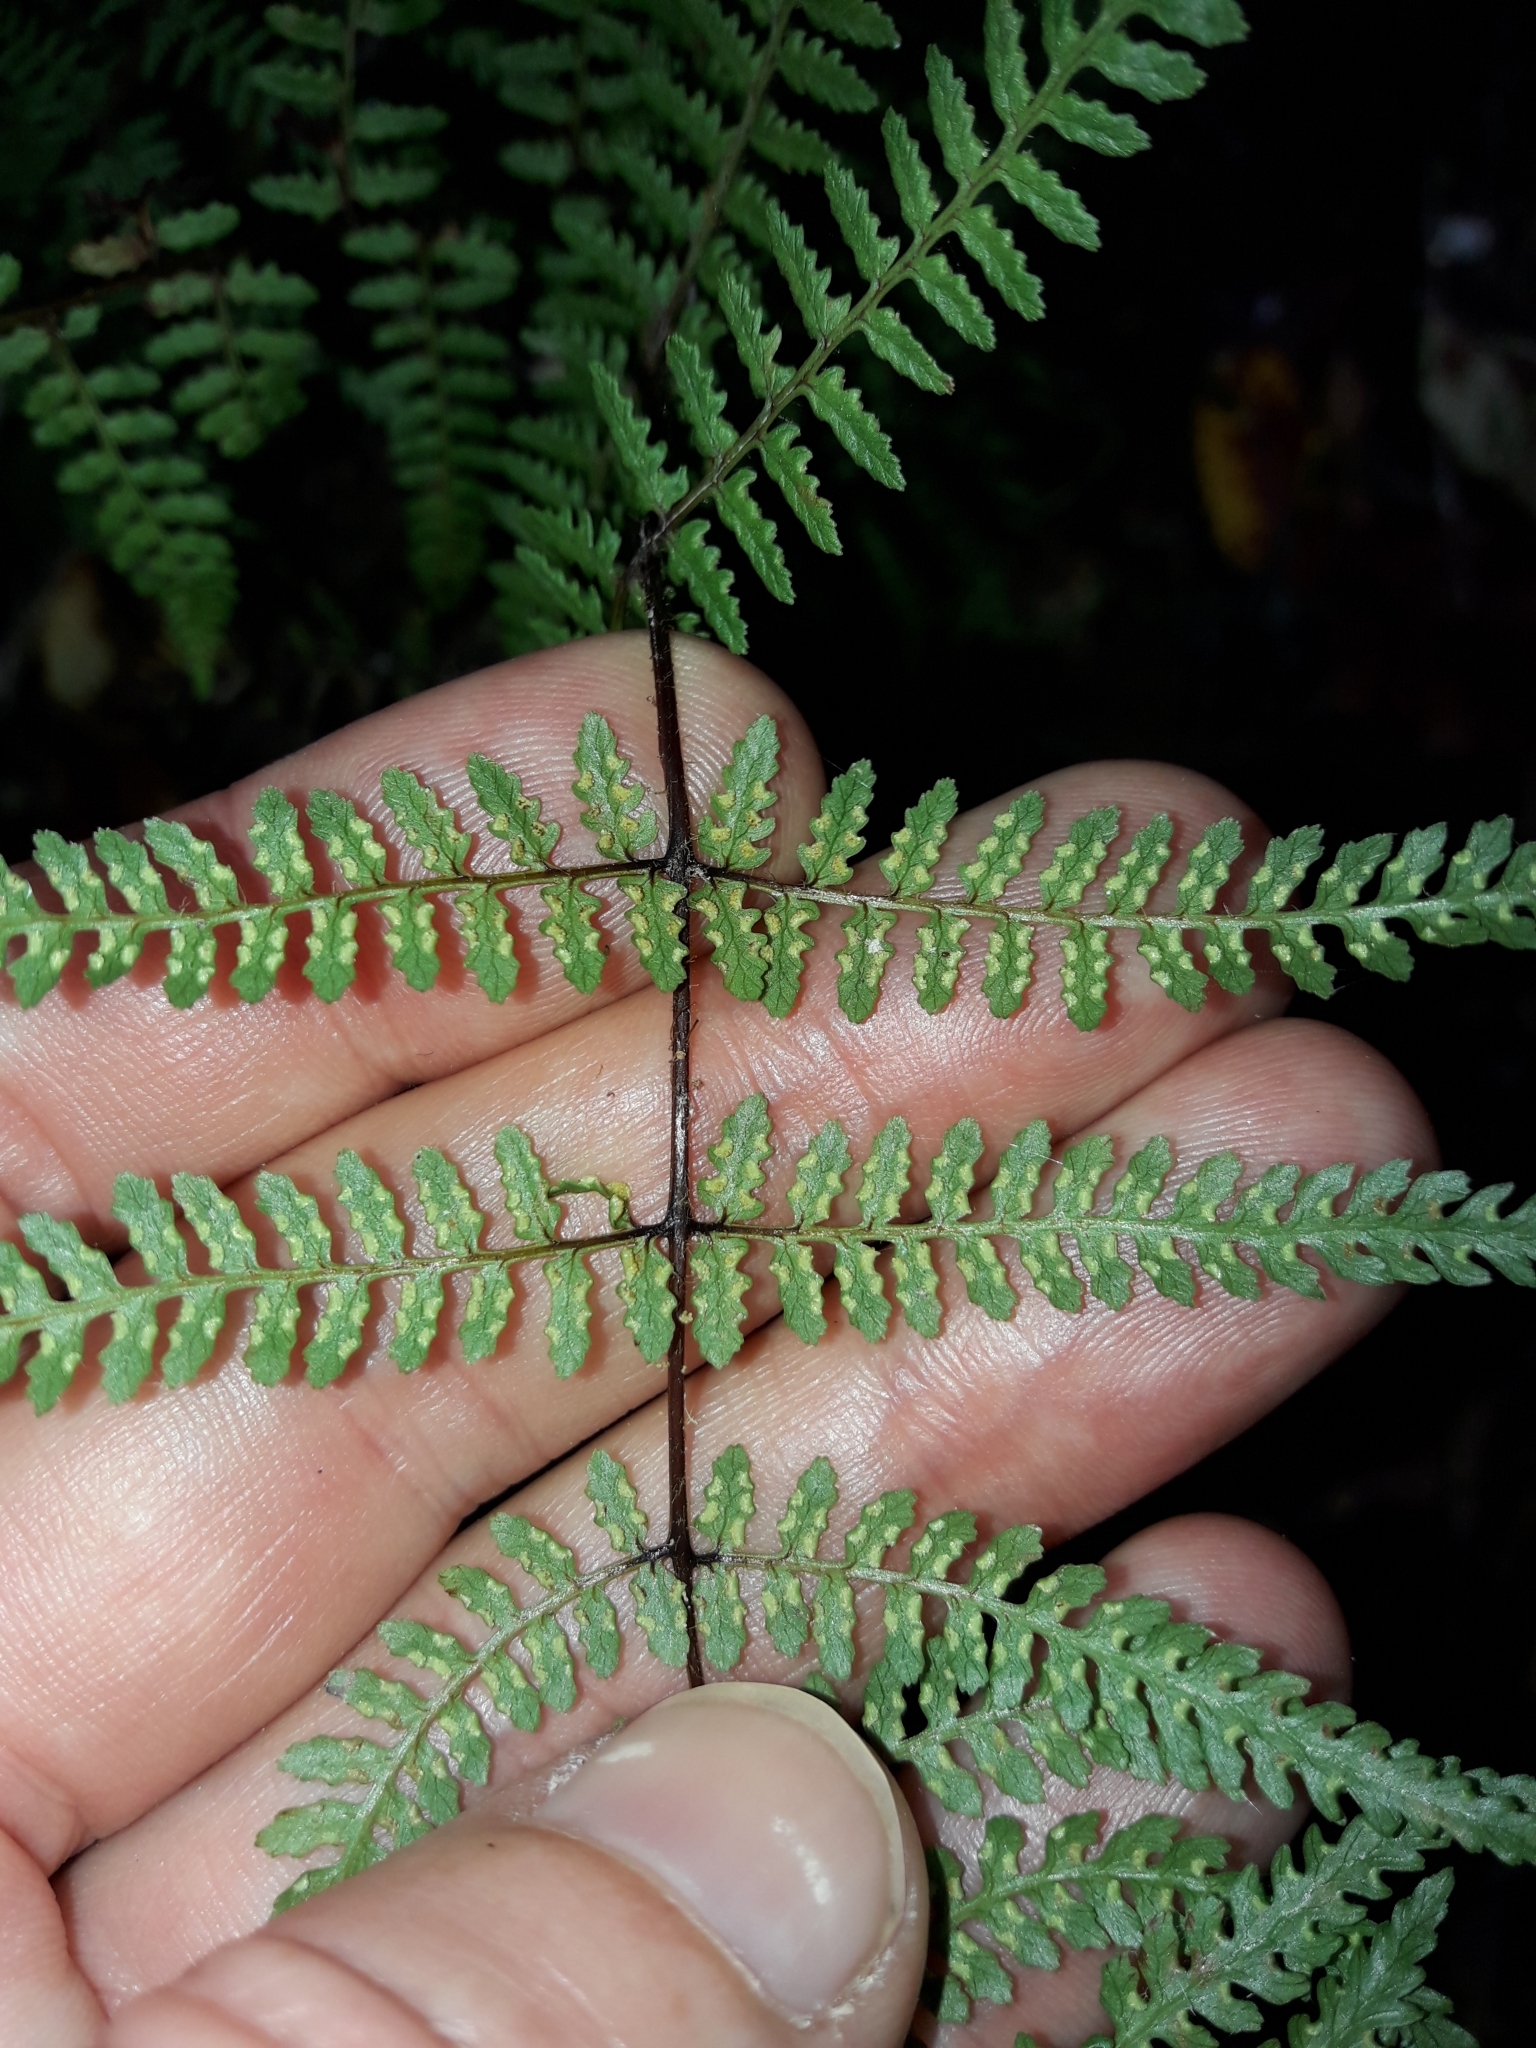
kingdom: Plantae
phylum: Tracheophyta
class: Polypodiopsida
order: Polypodiales
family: Dennstaedtiaceae
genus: Hiya
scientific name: Hiya distans
